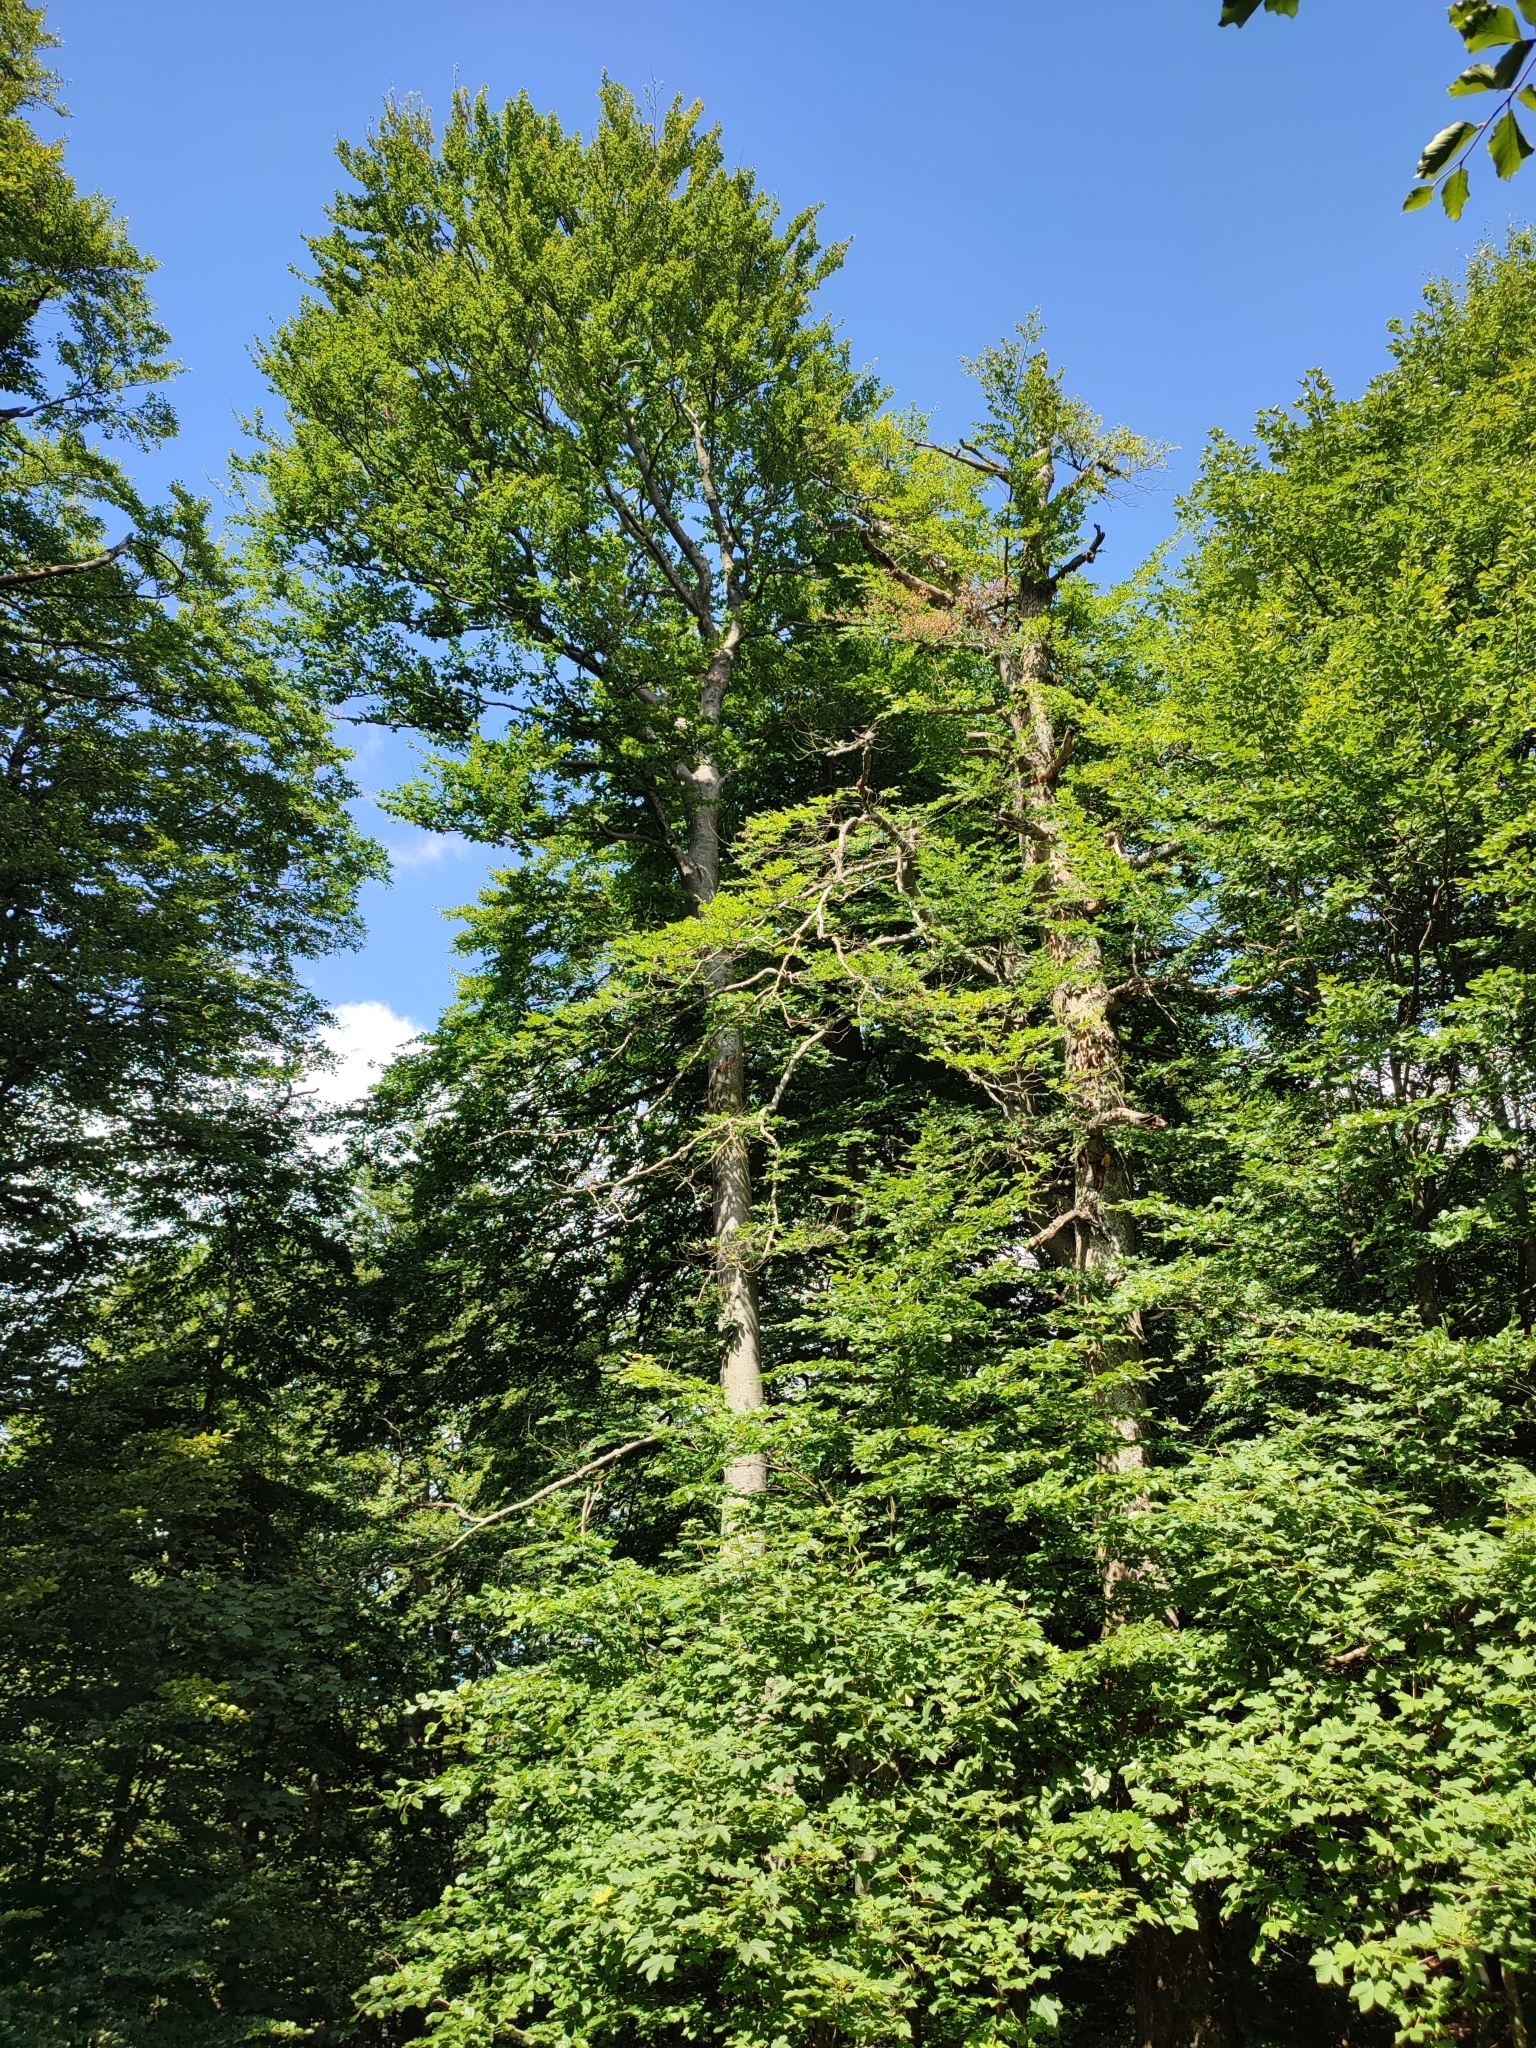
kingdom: Plantae
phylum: Tracheophyta
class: Magnoliopsida
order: Fagales
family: Fagaceae
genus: Fagus
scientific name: Fagus sylvatica
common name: Beech
